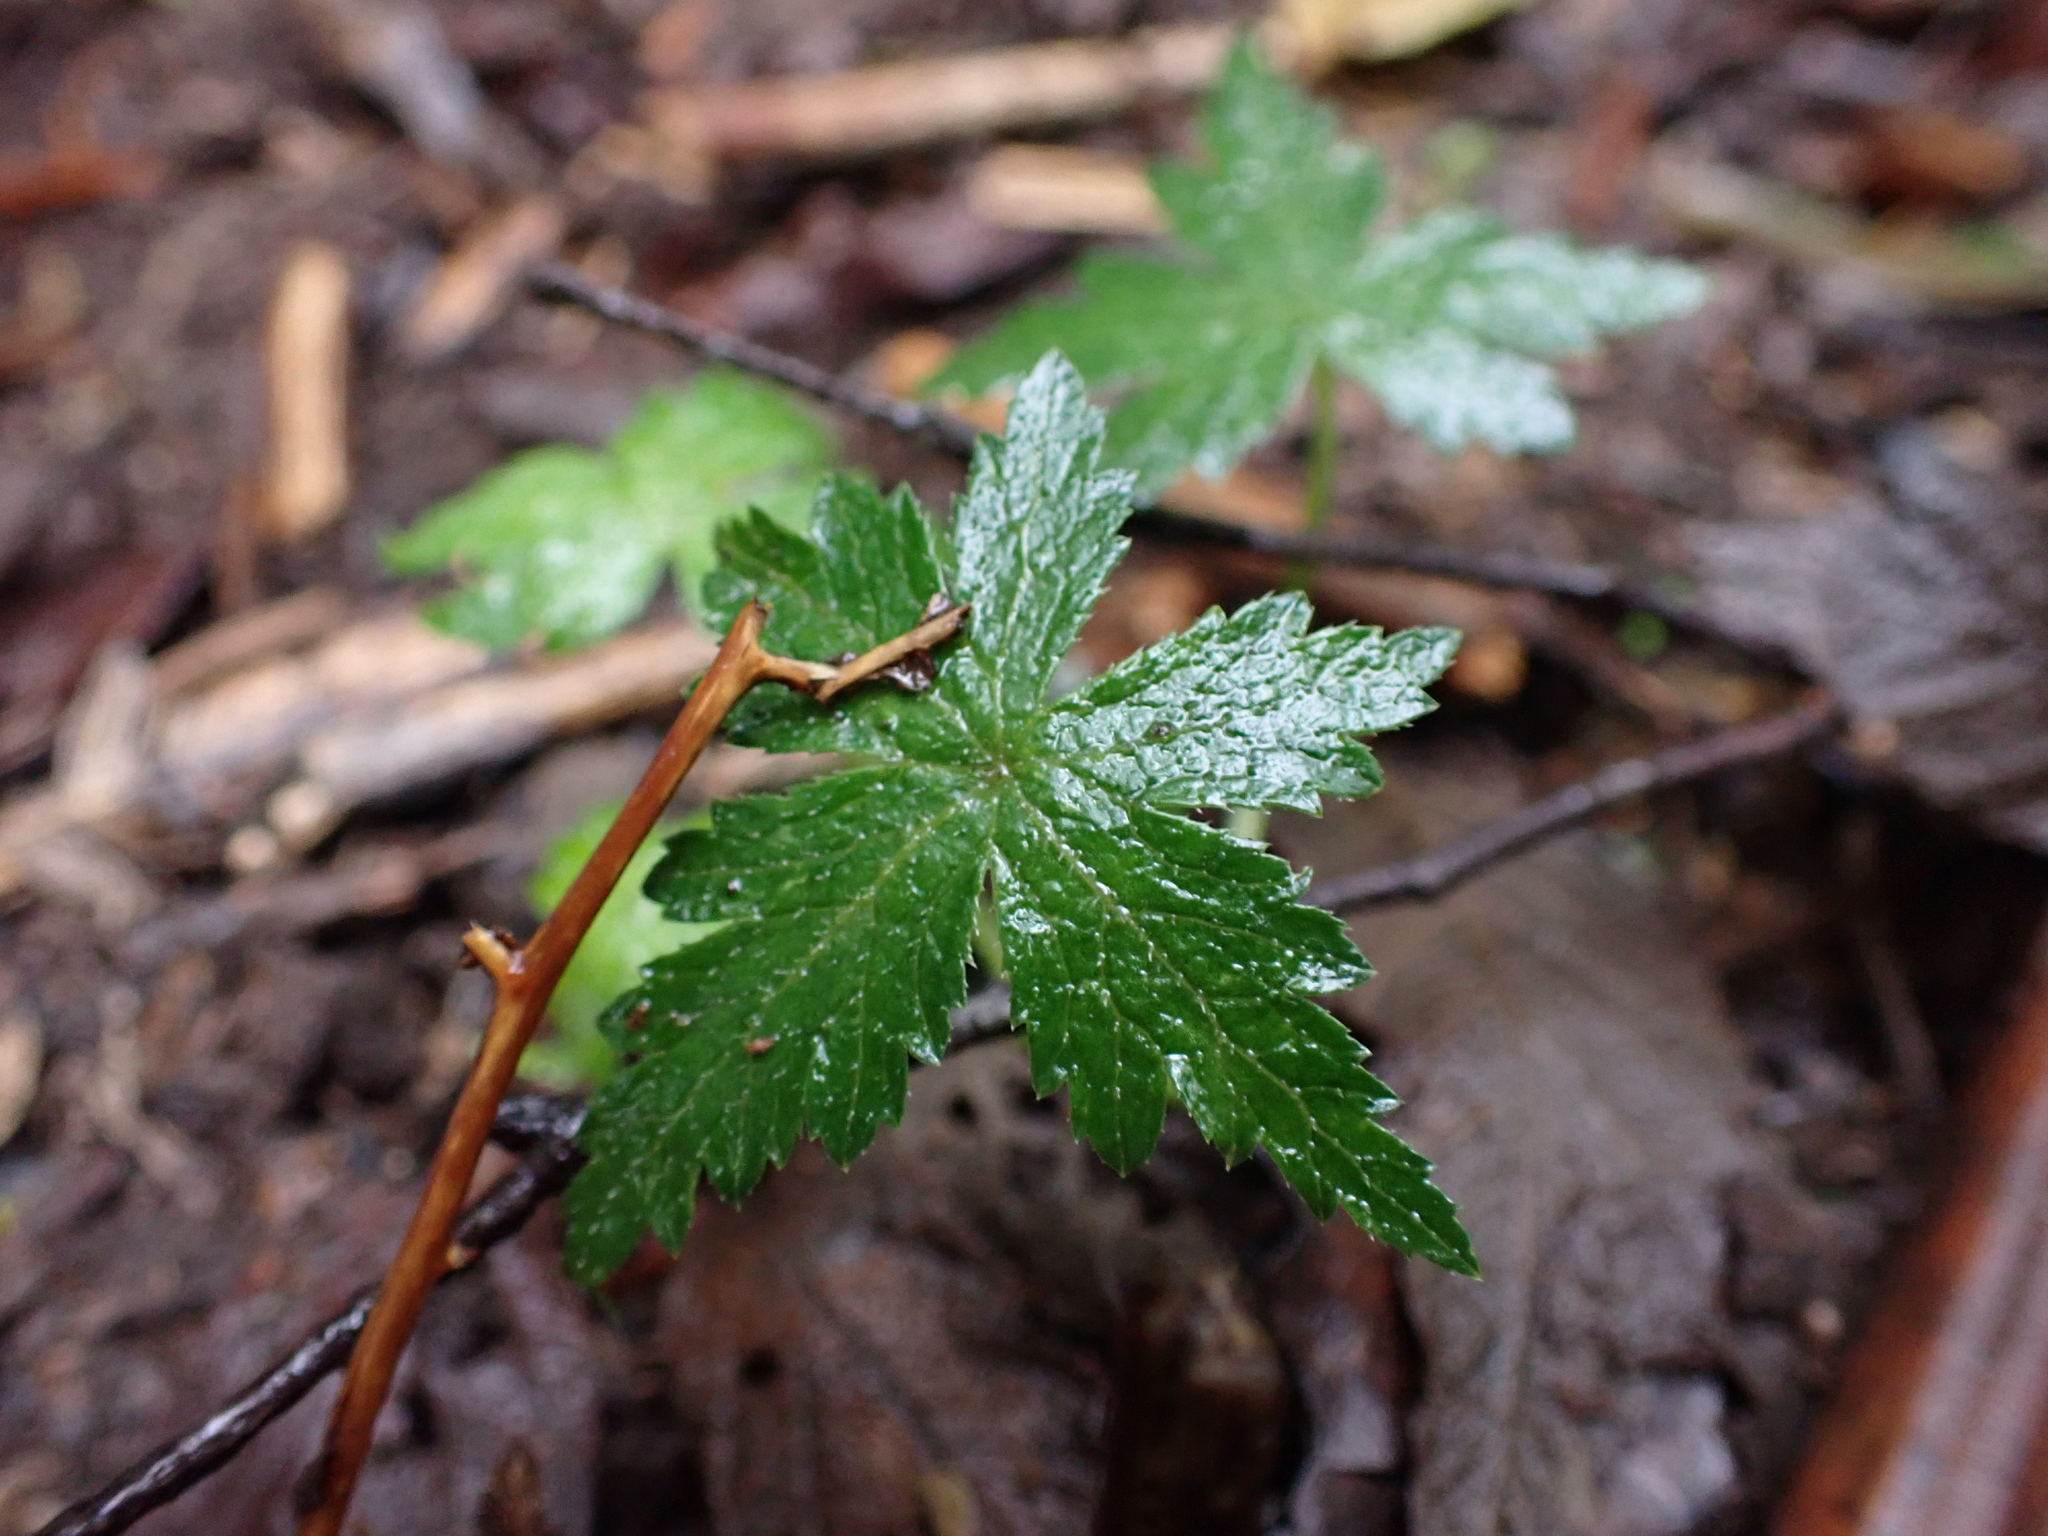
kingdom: Plantae
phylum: Tracheophyta
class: Magnoliopsida
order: Apiales
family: Araliaceae
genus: Hydrocotyle
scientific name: Hydrocotyle geraniifolia
